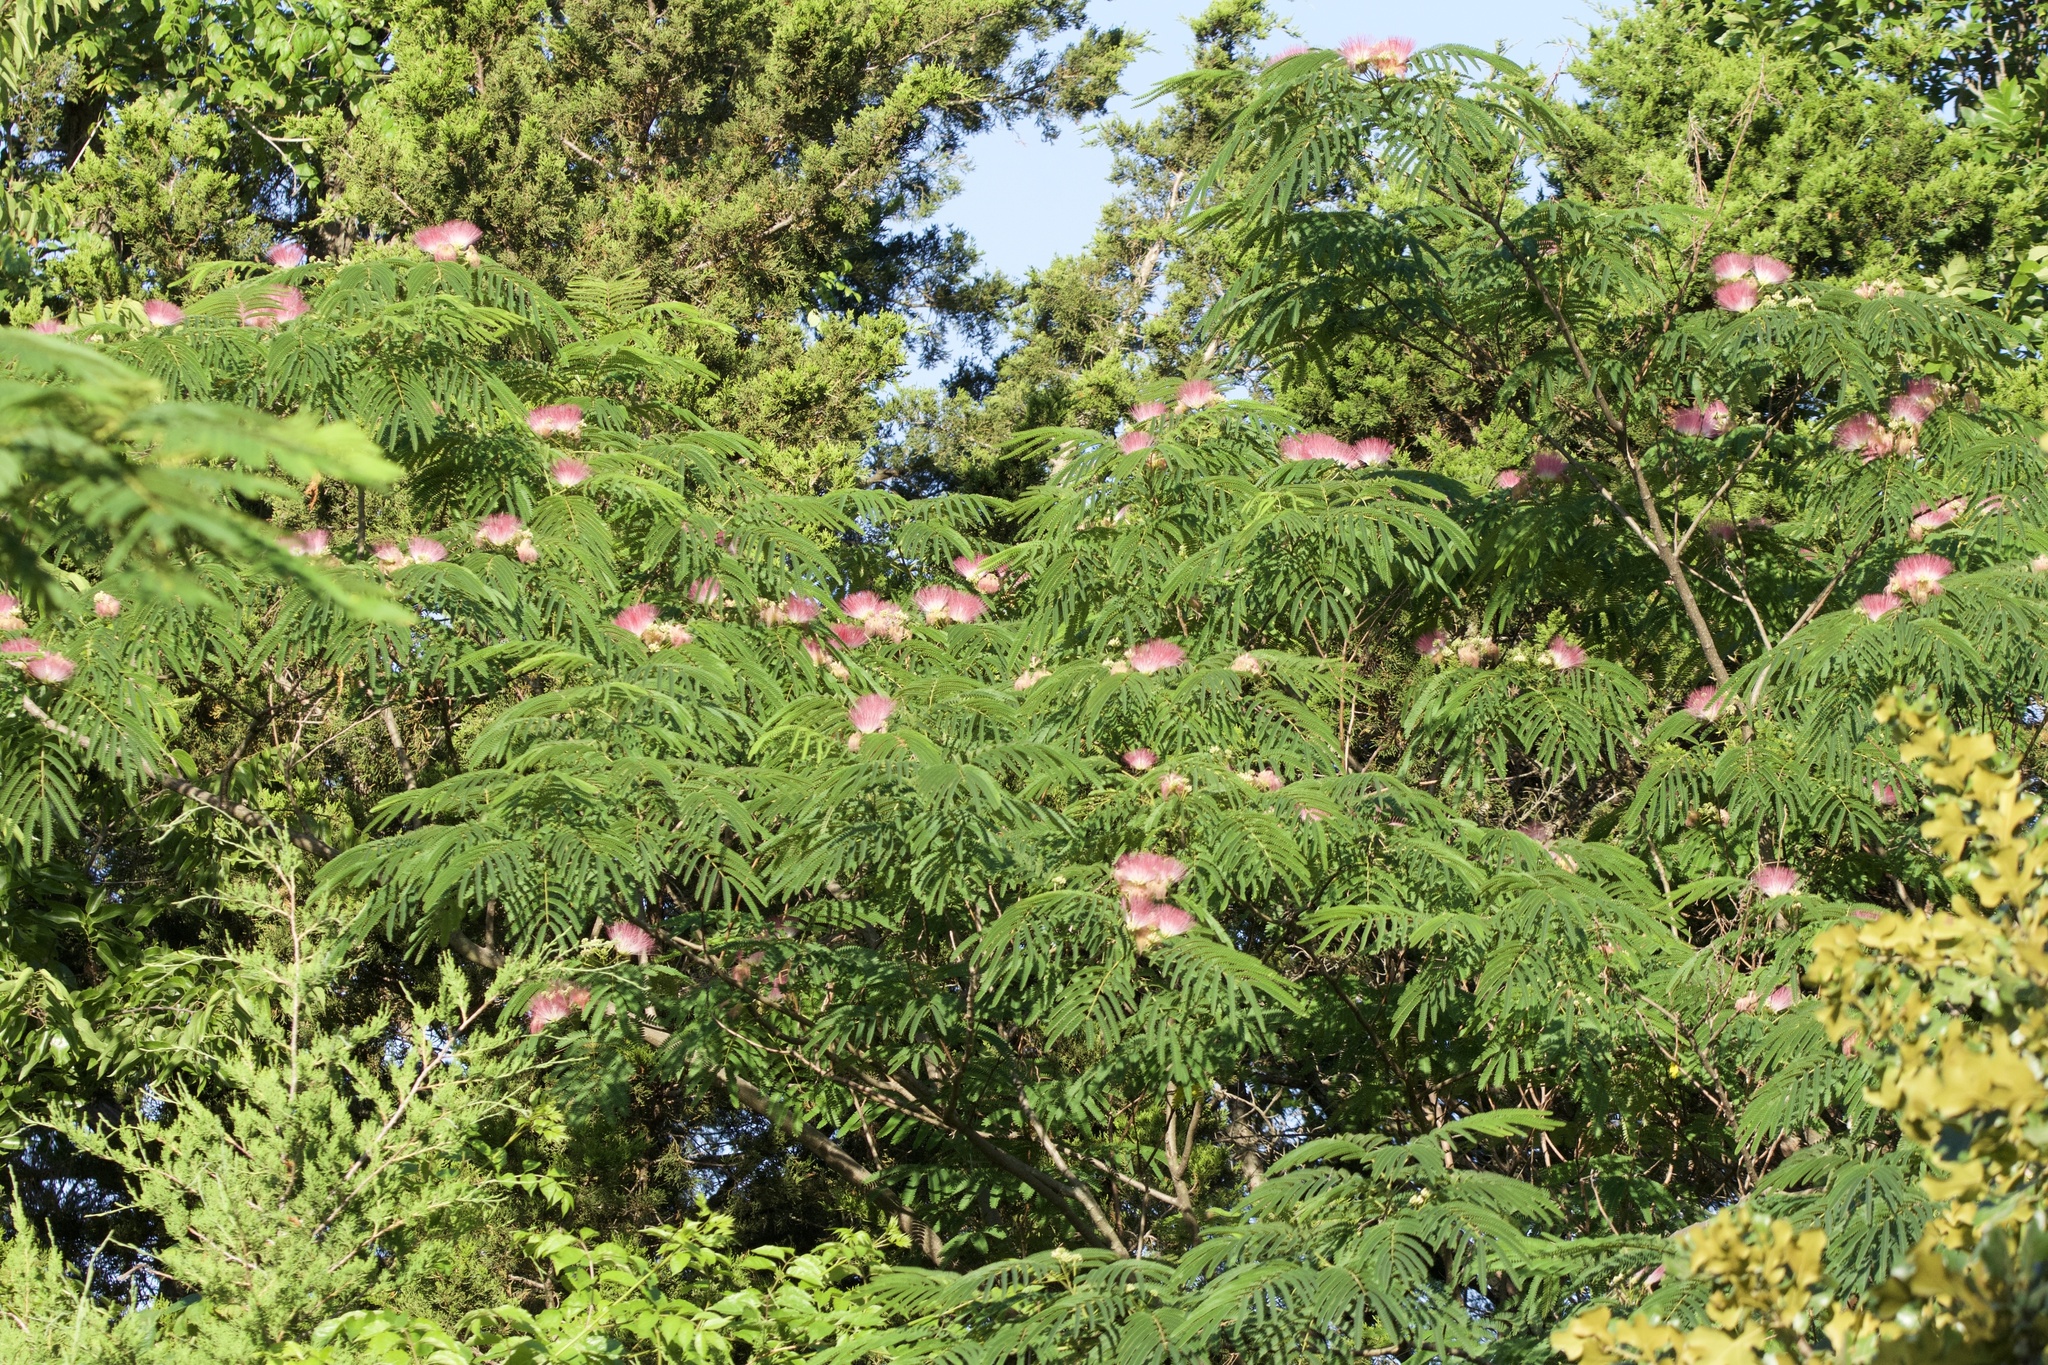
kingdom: Plantae
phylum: Tracheophyta
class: Magnoliopsida
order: Fabales
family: Fabaceae
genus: Albizia
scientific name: Albizia julibrissin
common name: Silktree
